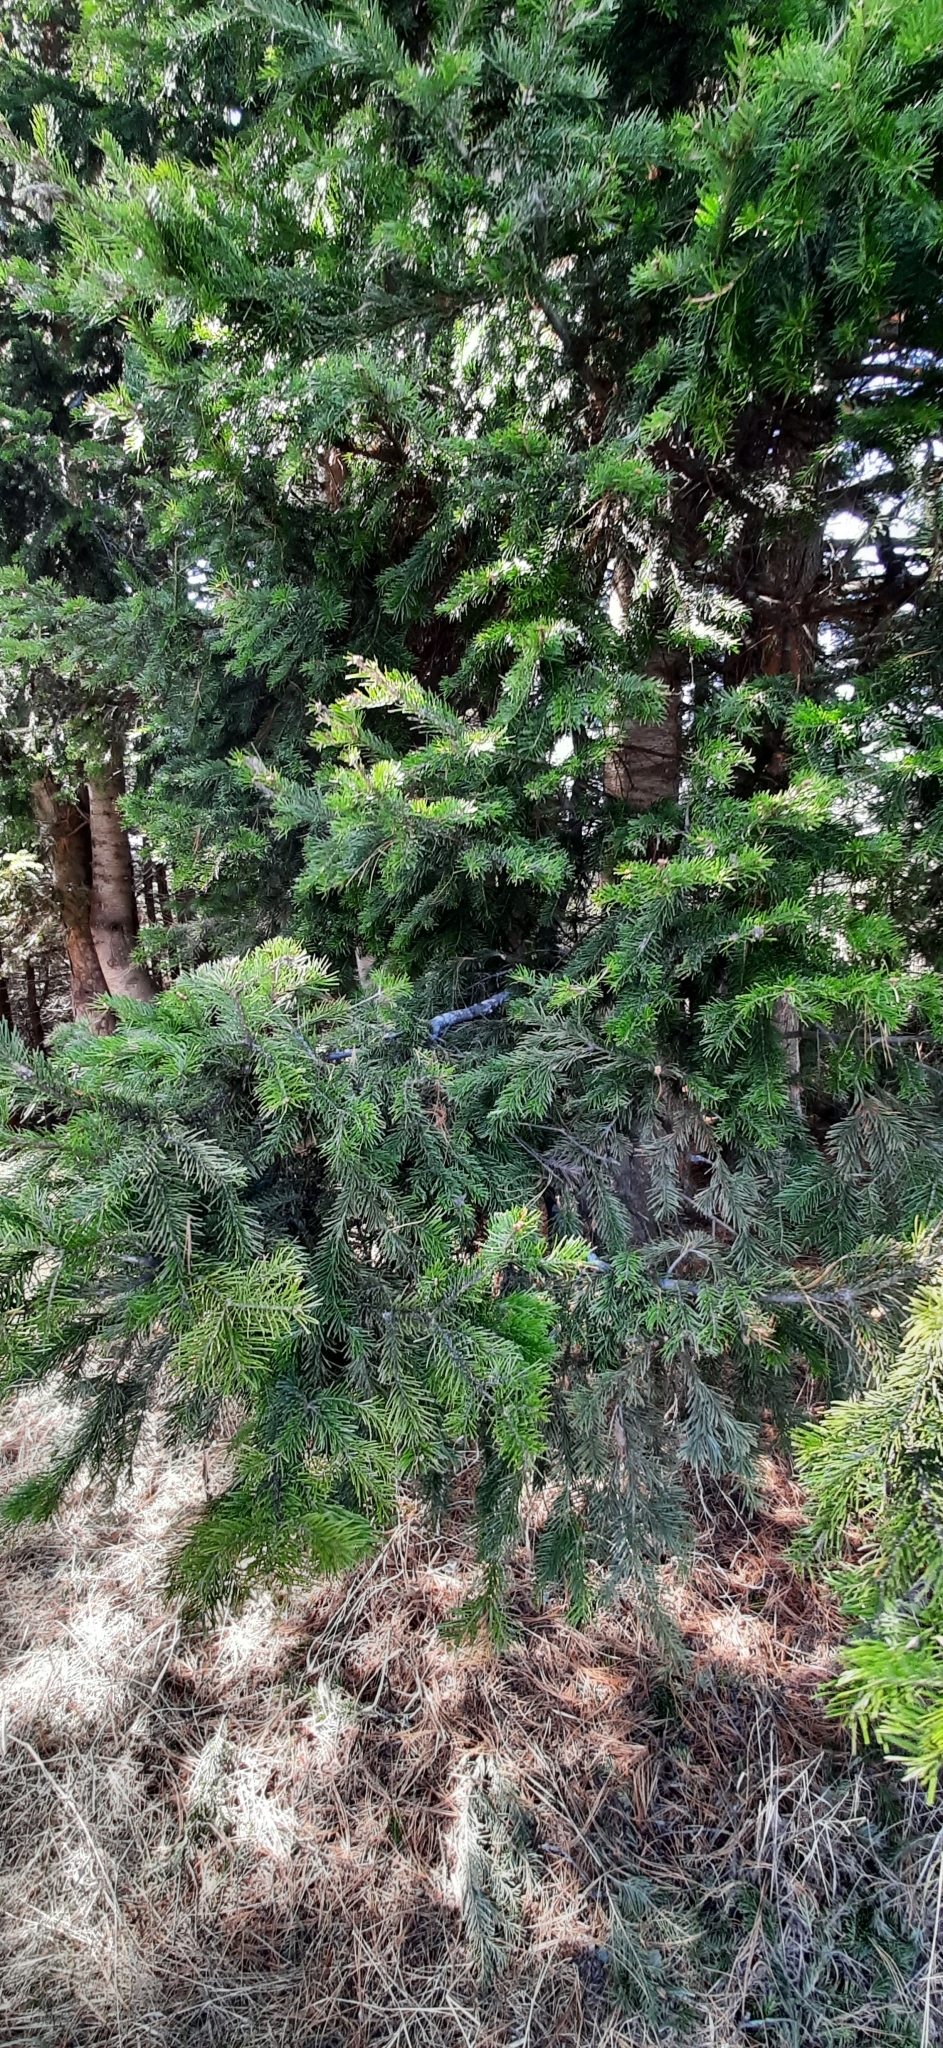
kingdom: Plantae
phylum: Tracheophyta
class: Pinopsida
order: Pinales
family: Pinaceae
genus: Abies
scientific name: Abies sibirica
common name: Siberian fir
